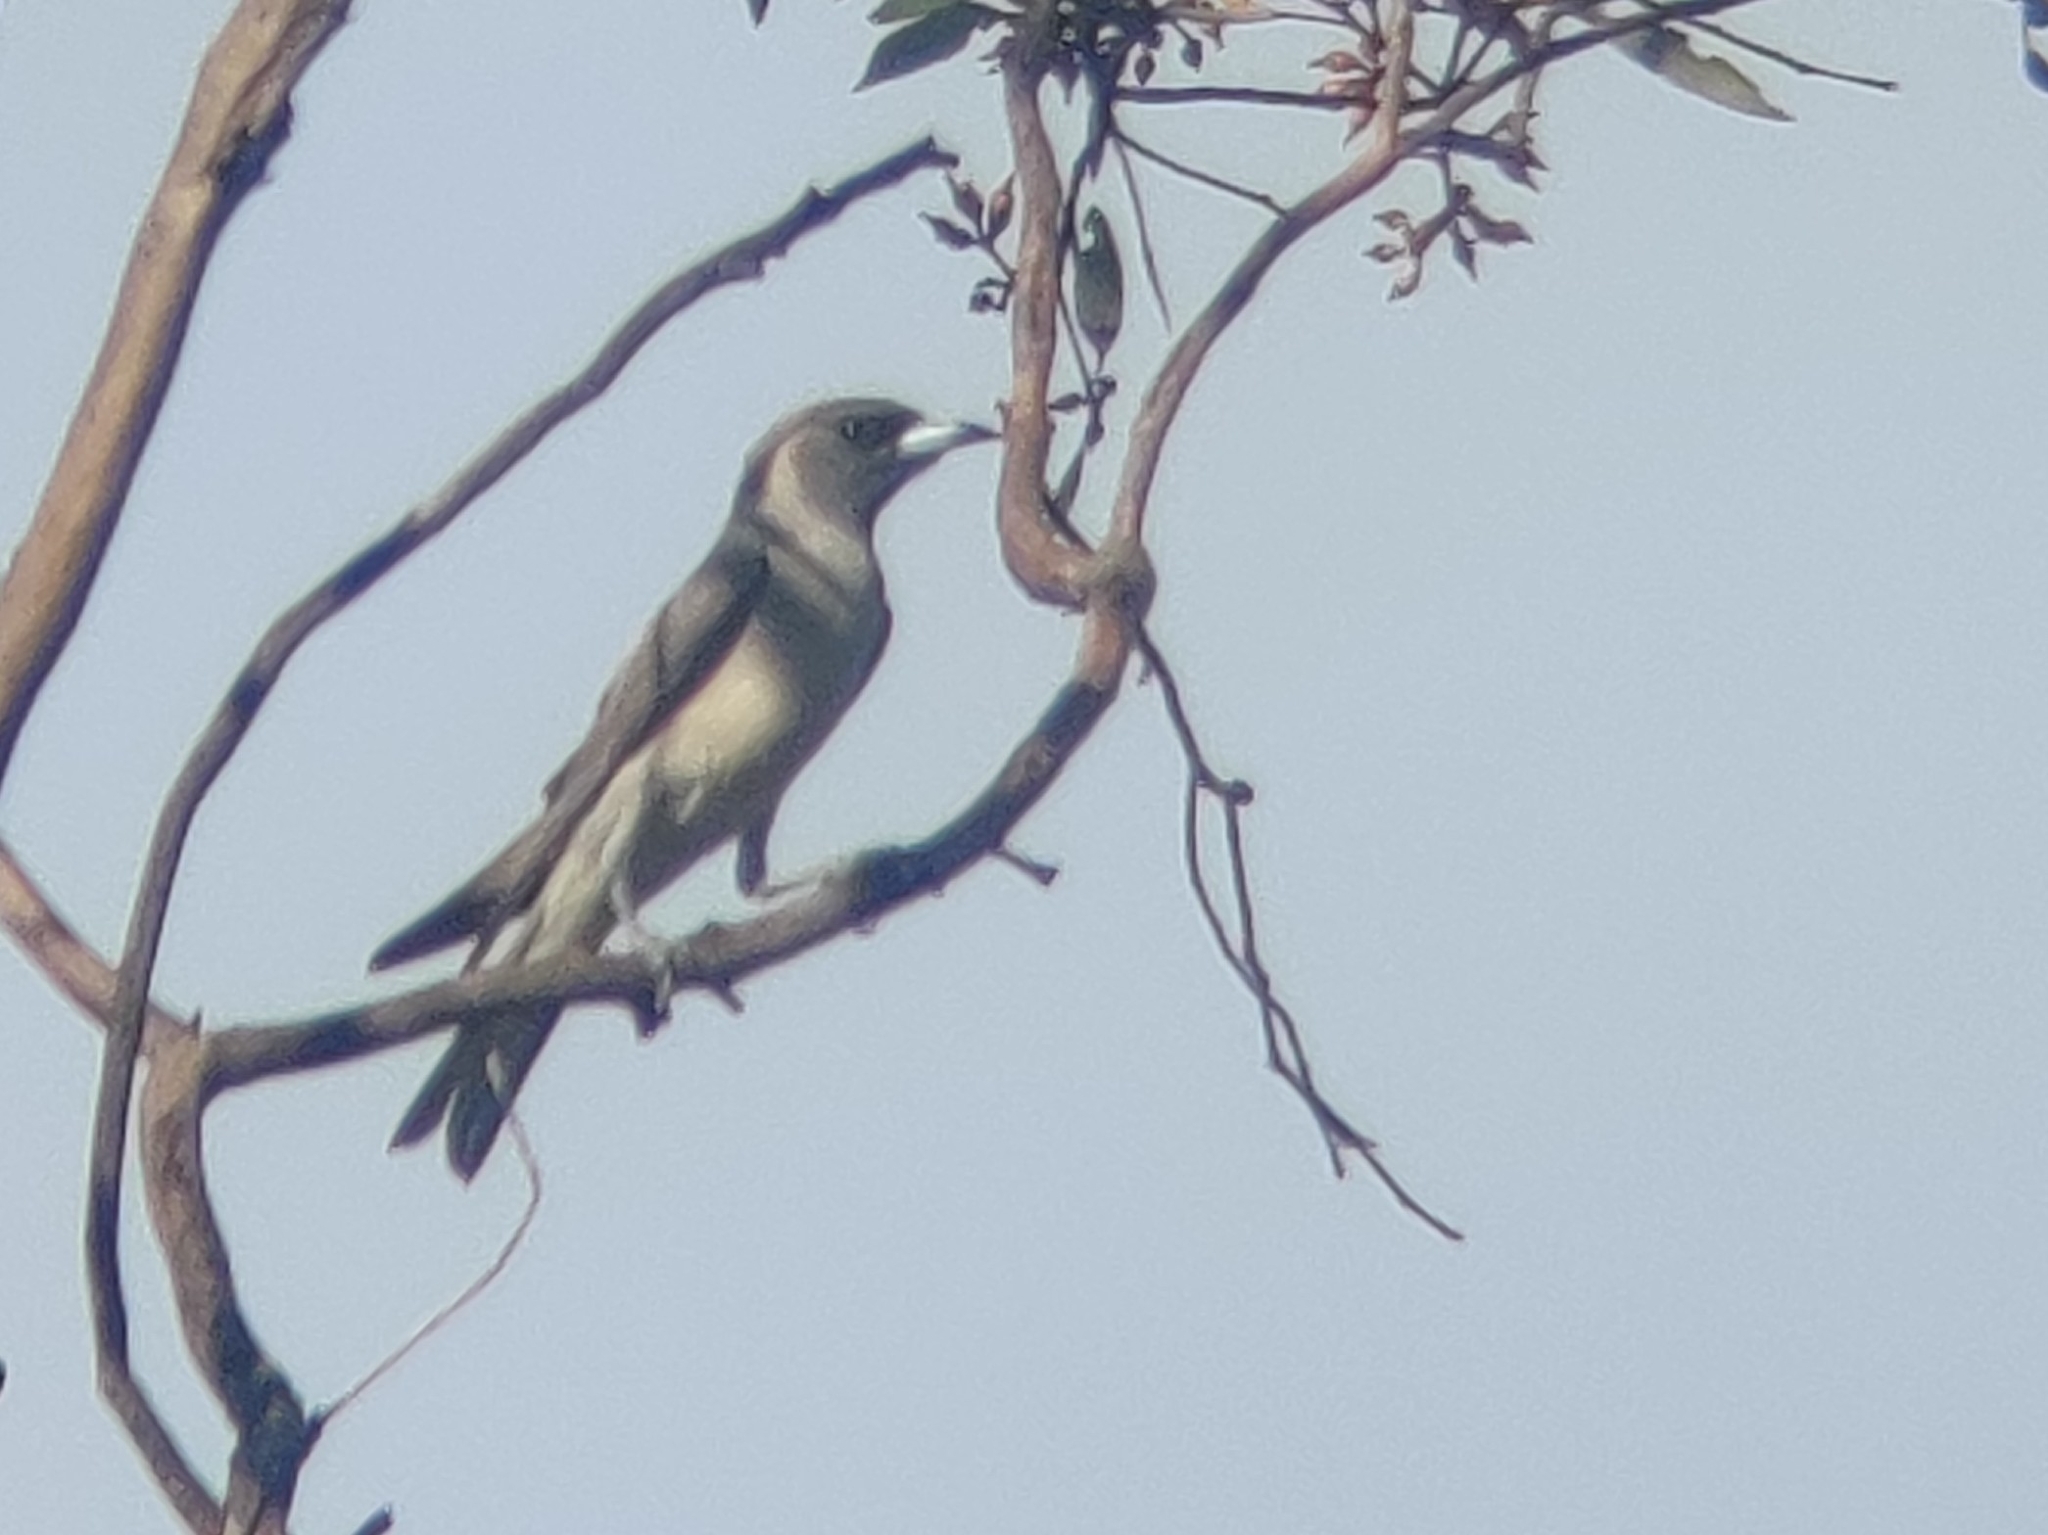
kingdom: Animalia
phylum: Chordata
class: Aves
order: Passeriformes
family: Artamidae
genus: Artamus
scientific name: Artamus personatus
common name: Masked woodswallow
